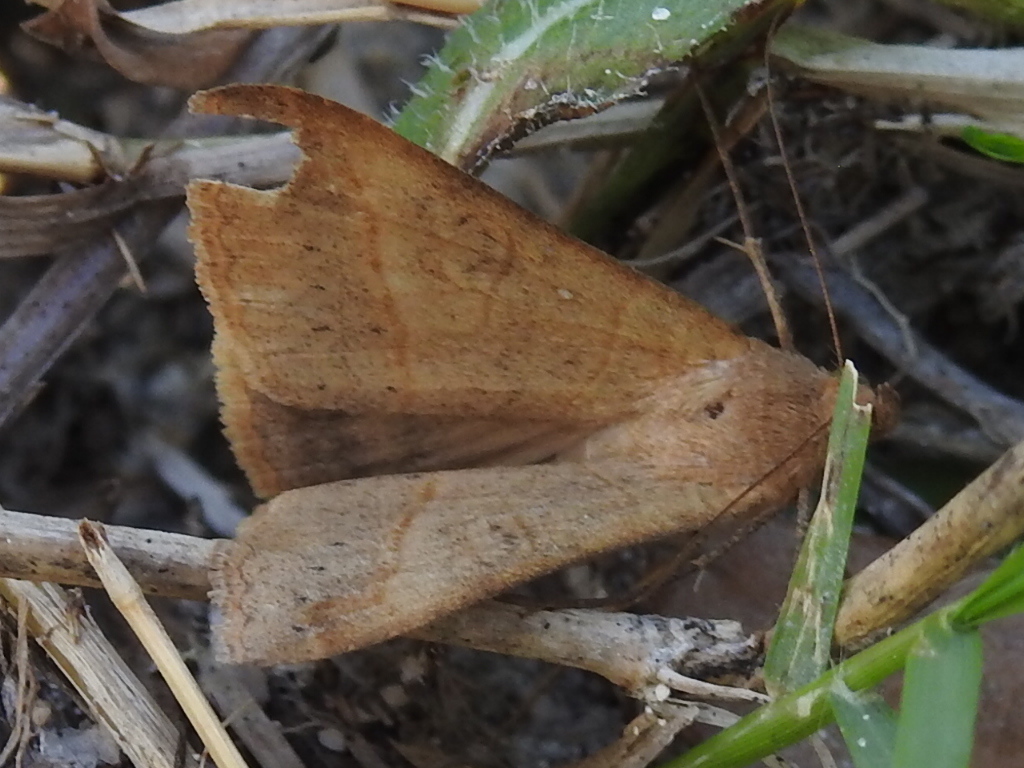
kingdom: Animalia
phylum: Arthropoda
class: Insecta
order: Lepidoptera
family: Erebidae
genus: Mocis
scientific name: Mocis marcida
